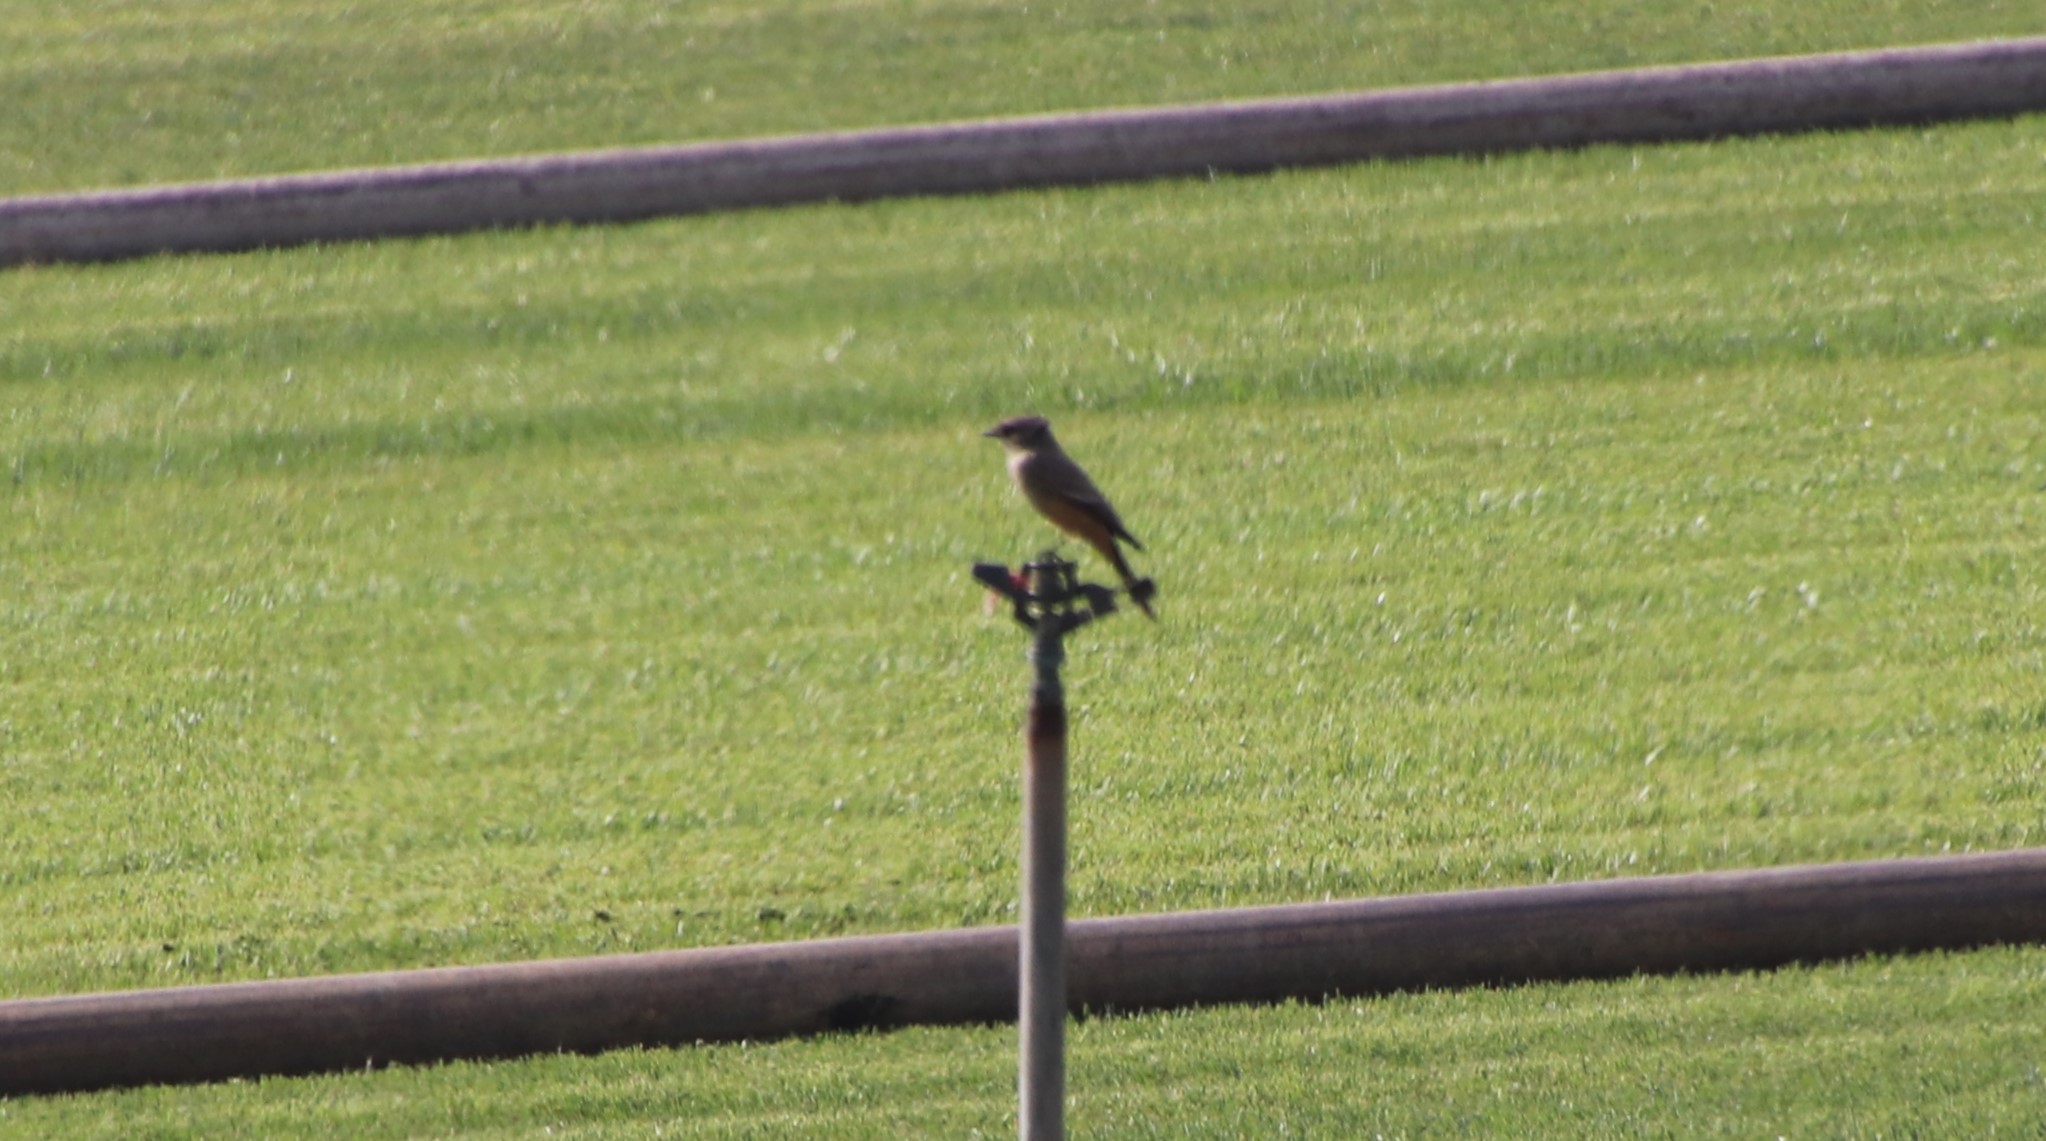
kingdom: Animalia
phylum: Chordata
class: Aves
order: Passeriformes
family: Tyrannidae
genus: Sayornis
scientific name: Sayornis saya
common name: Say's phoebe
